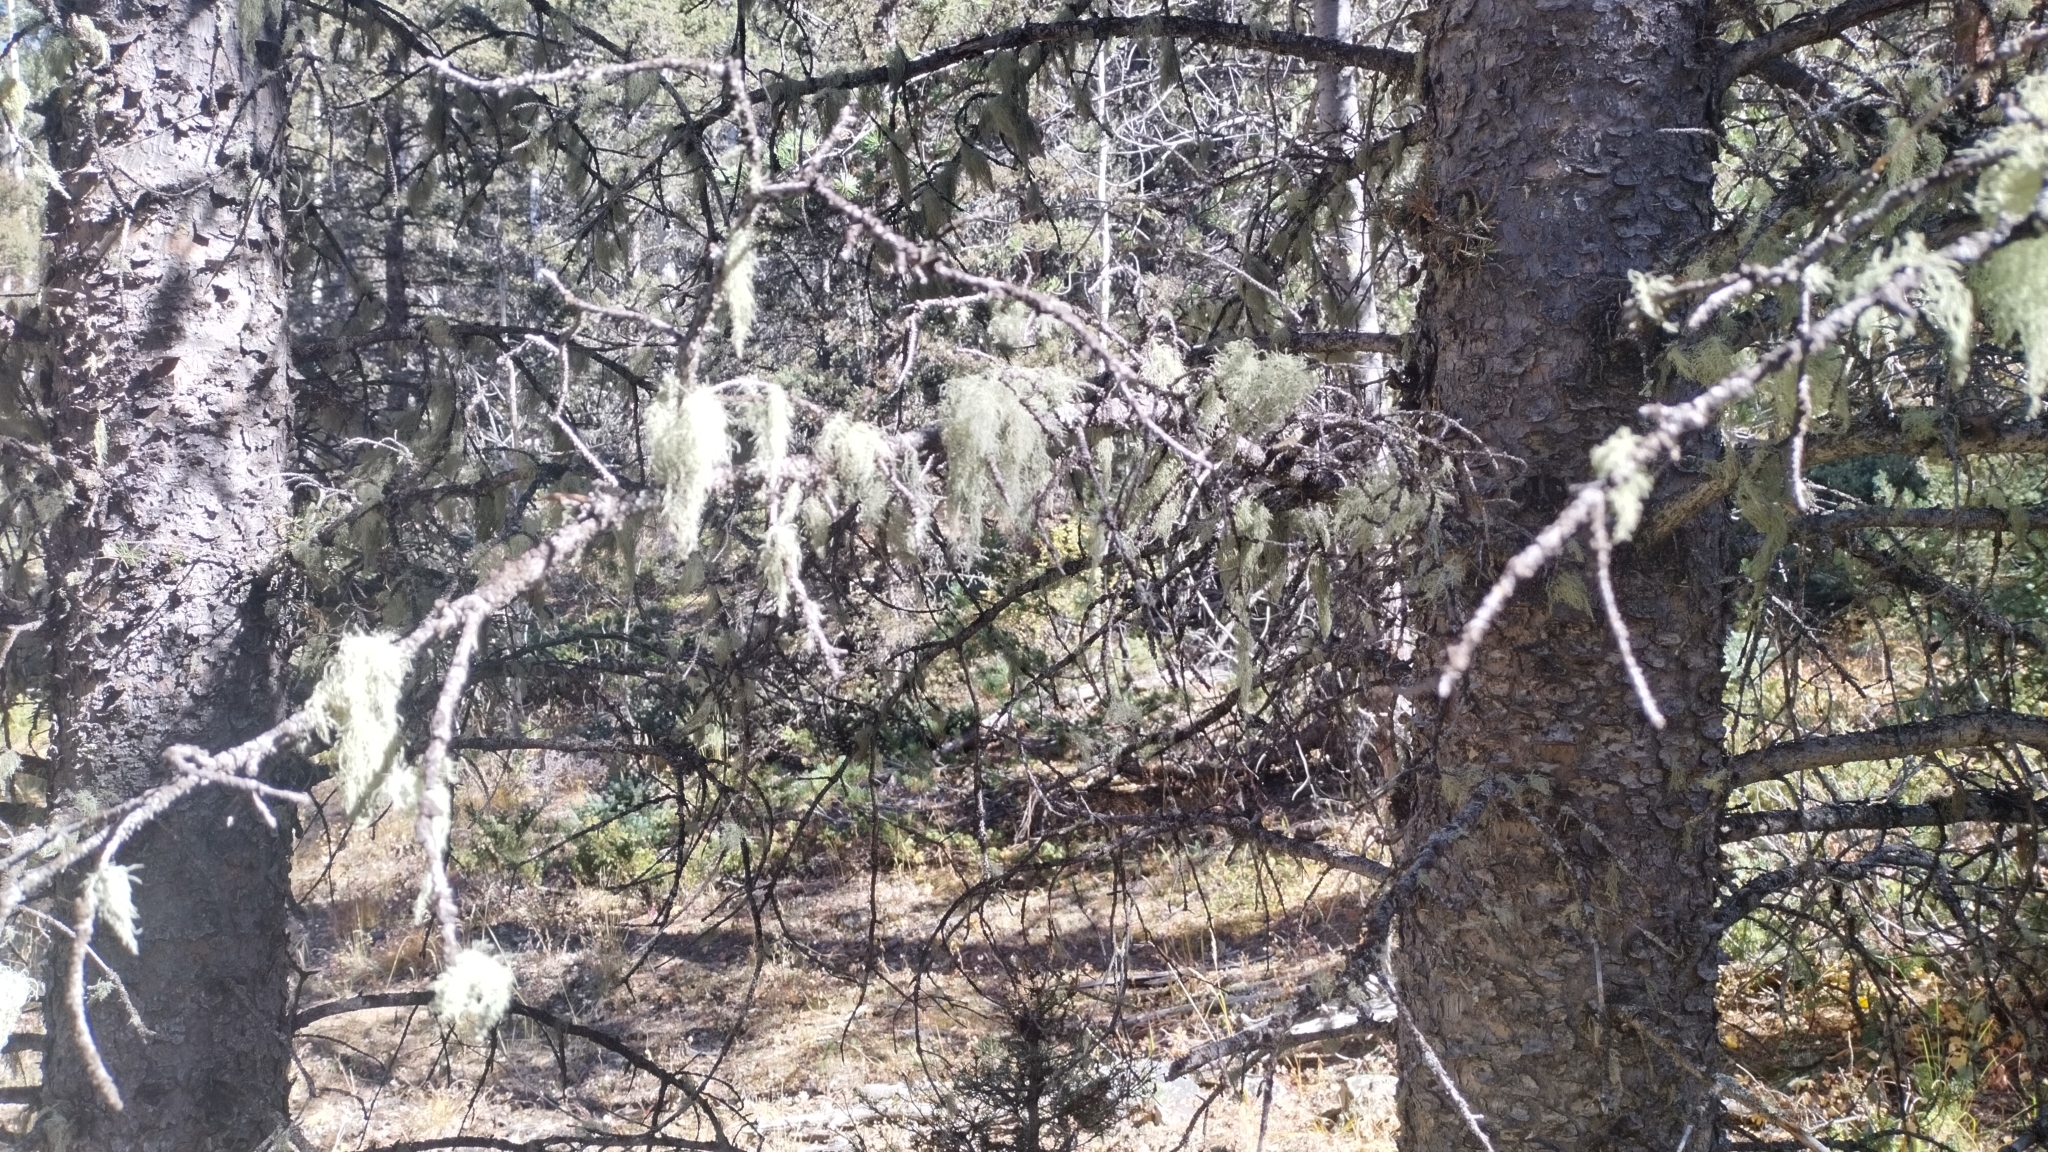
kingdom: Fungi
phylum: Ascomycota
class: Lecanoromycetes
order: Lecanorales
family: Parmeliaceae
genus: Usnea
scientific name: Usnea cavernosa
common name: Pitted beard lichen
